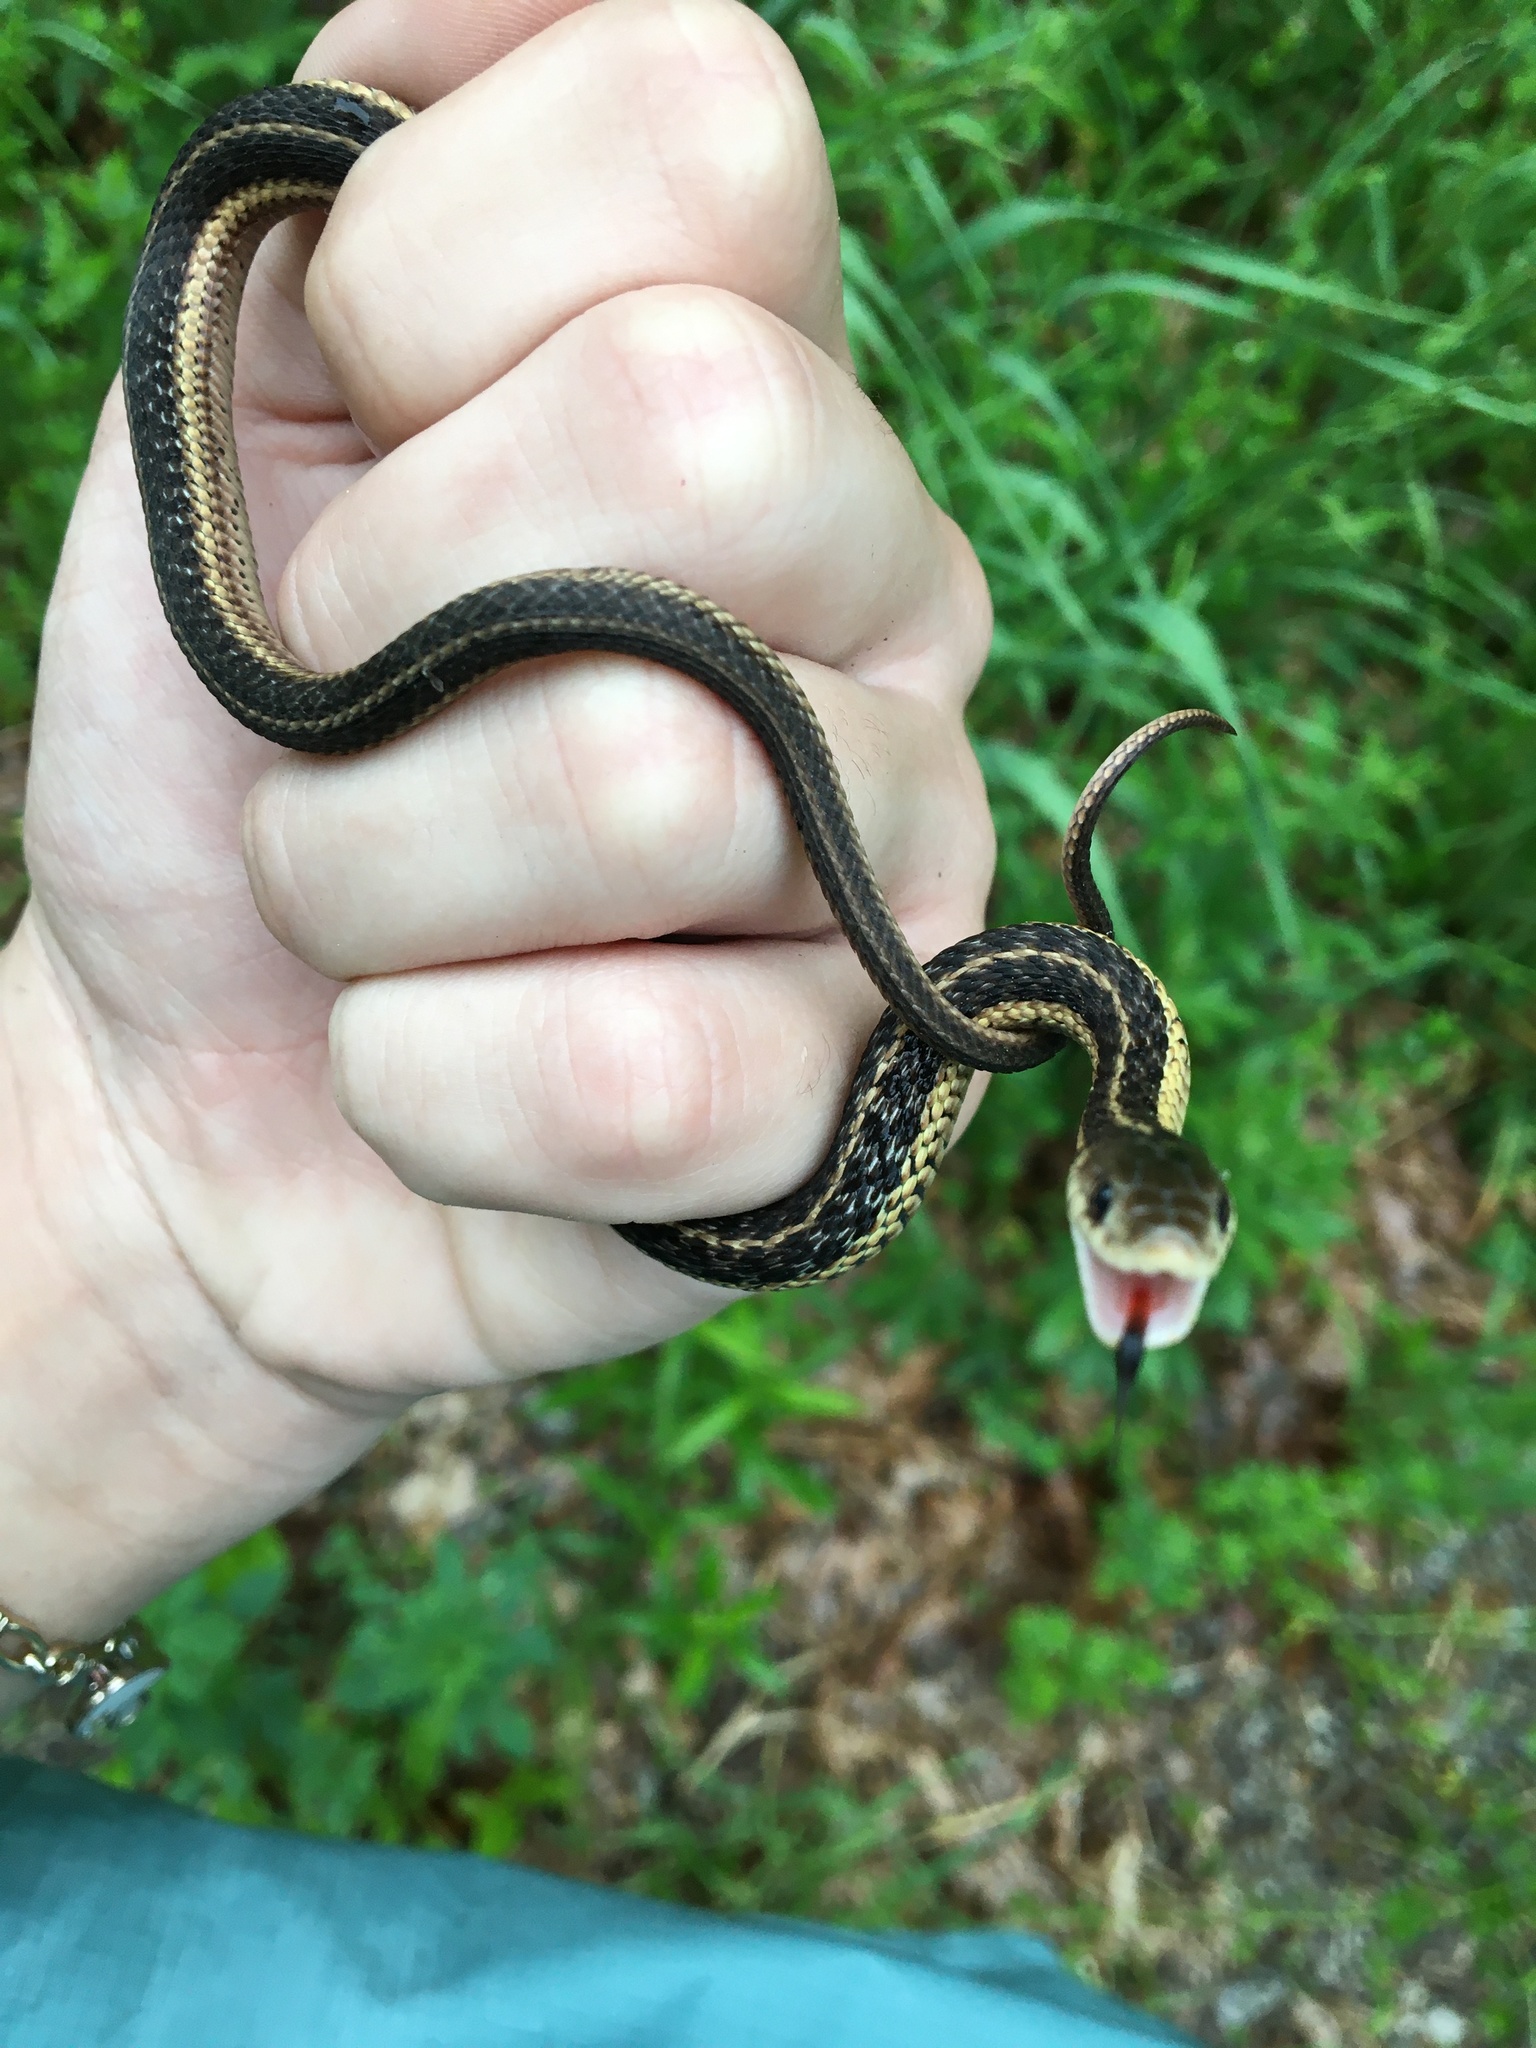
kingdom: Animalia
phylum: Chordata
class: Squamata
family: Colubridae
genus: Thamnophis
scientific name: Thamnophis sirtalis
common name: Common garter snake
